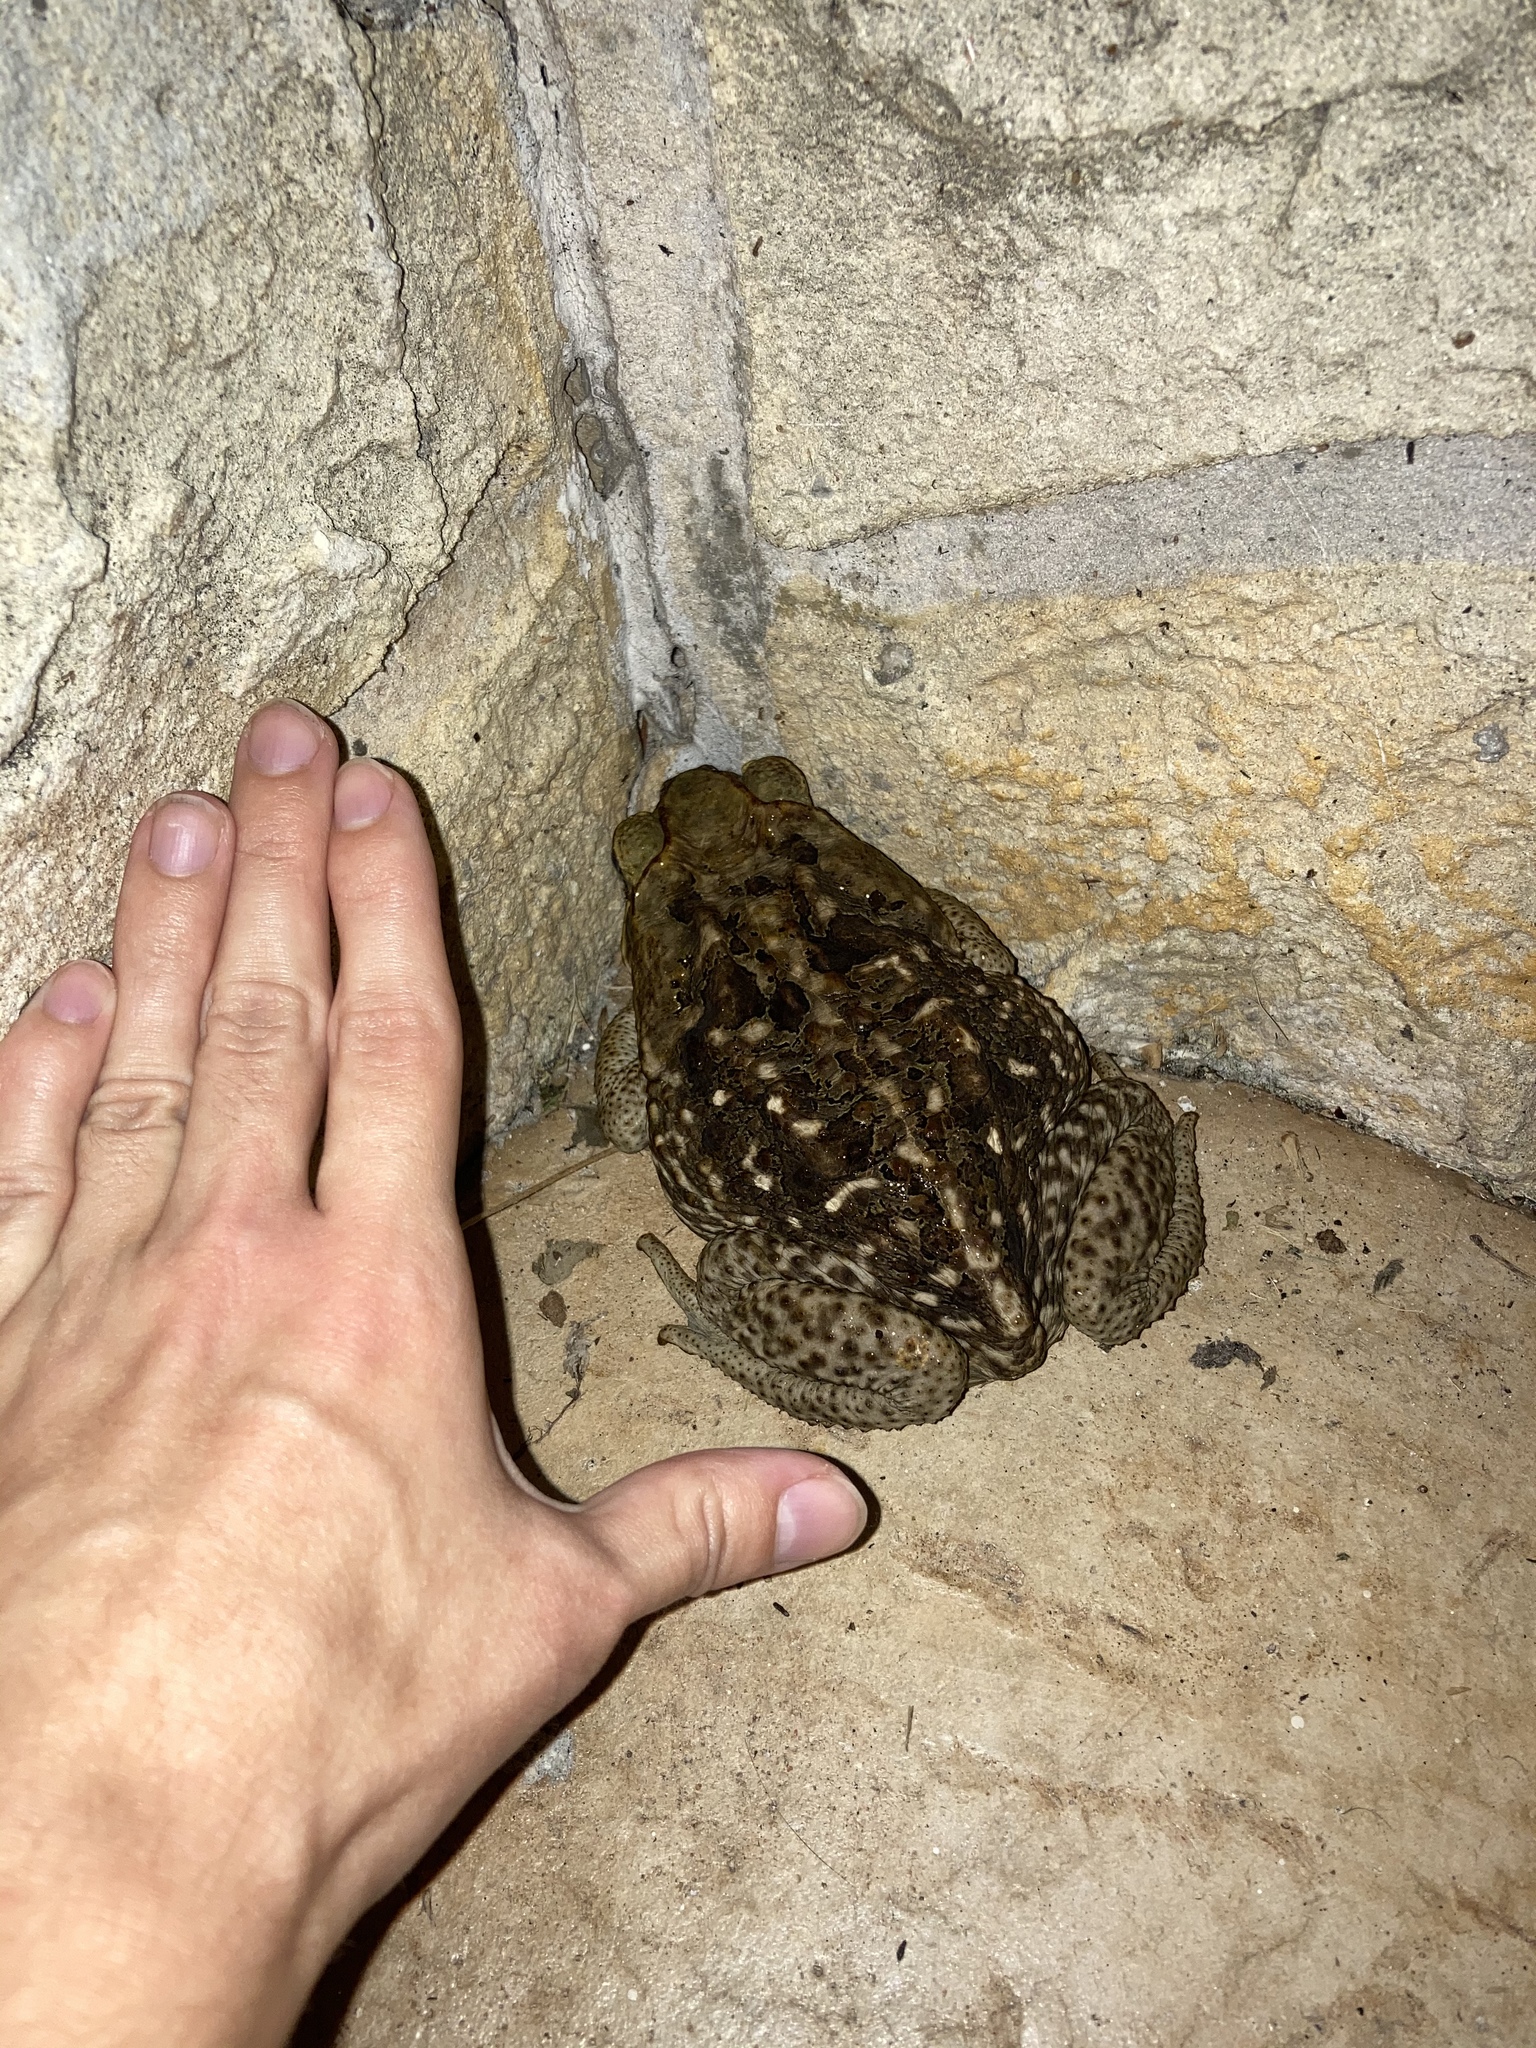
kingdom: Animalia
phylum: Chordata
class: Amphibia
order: Anura
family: Bufonidae
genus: Rhinella
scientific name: Rhinella marina
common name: Cane toad
